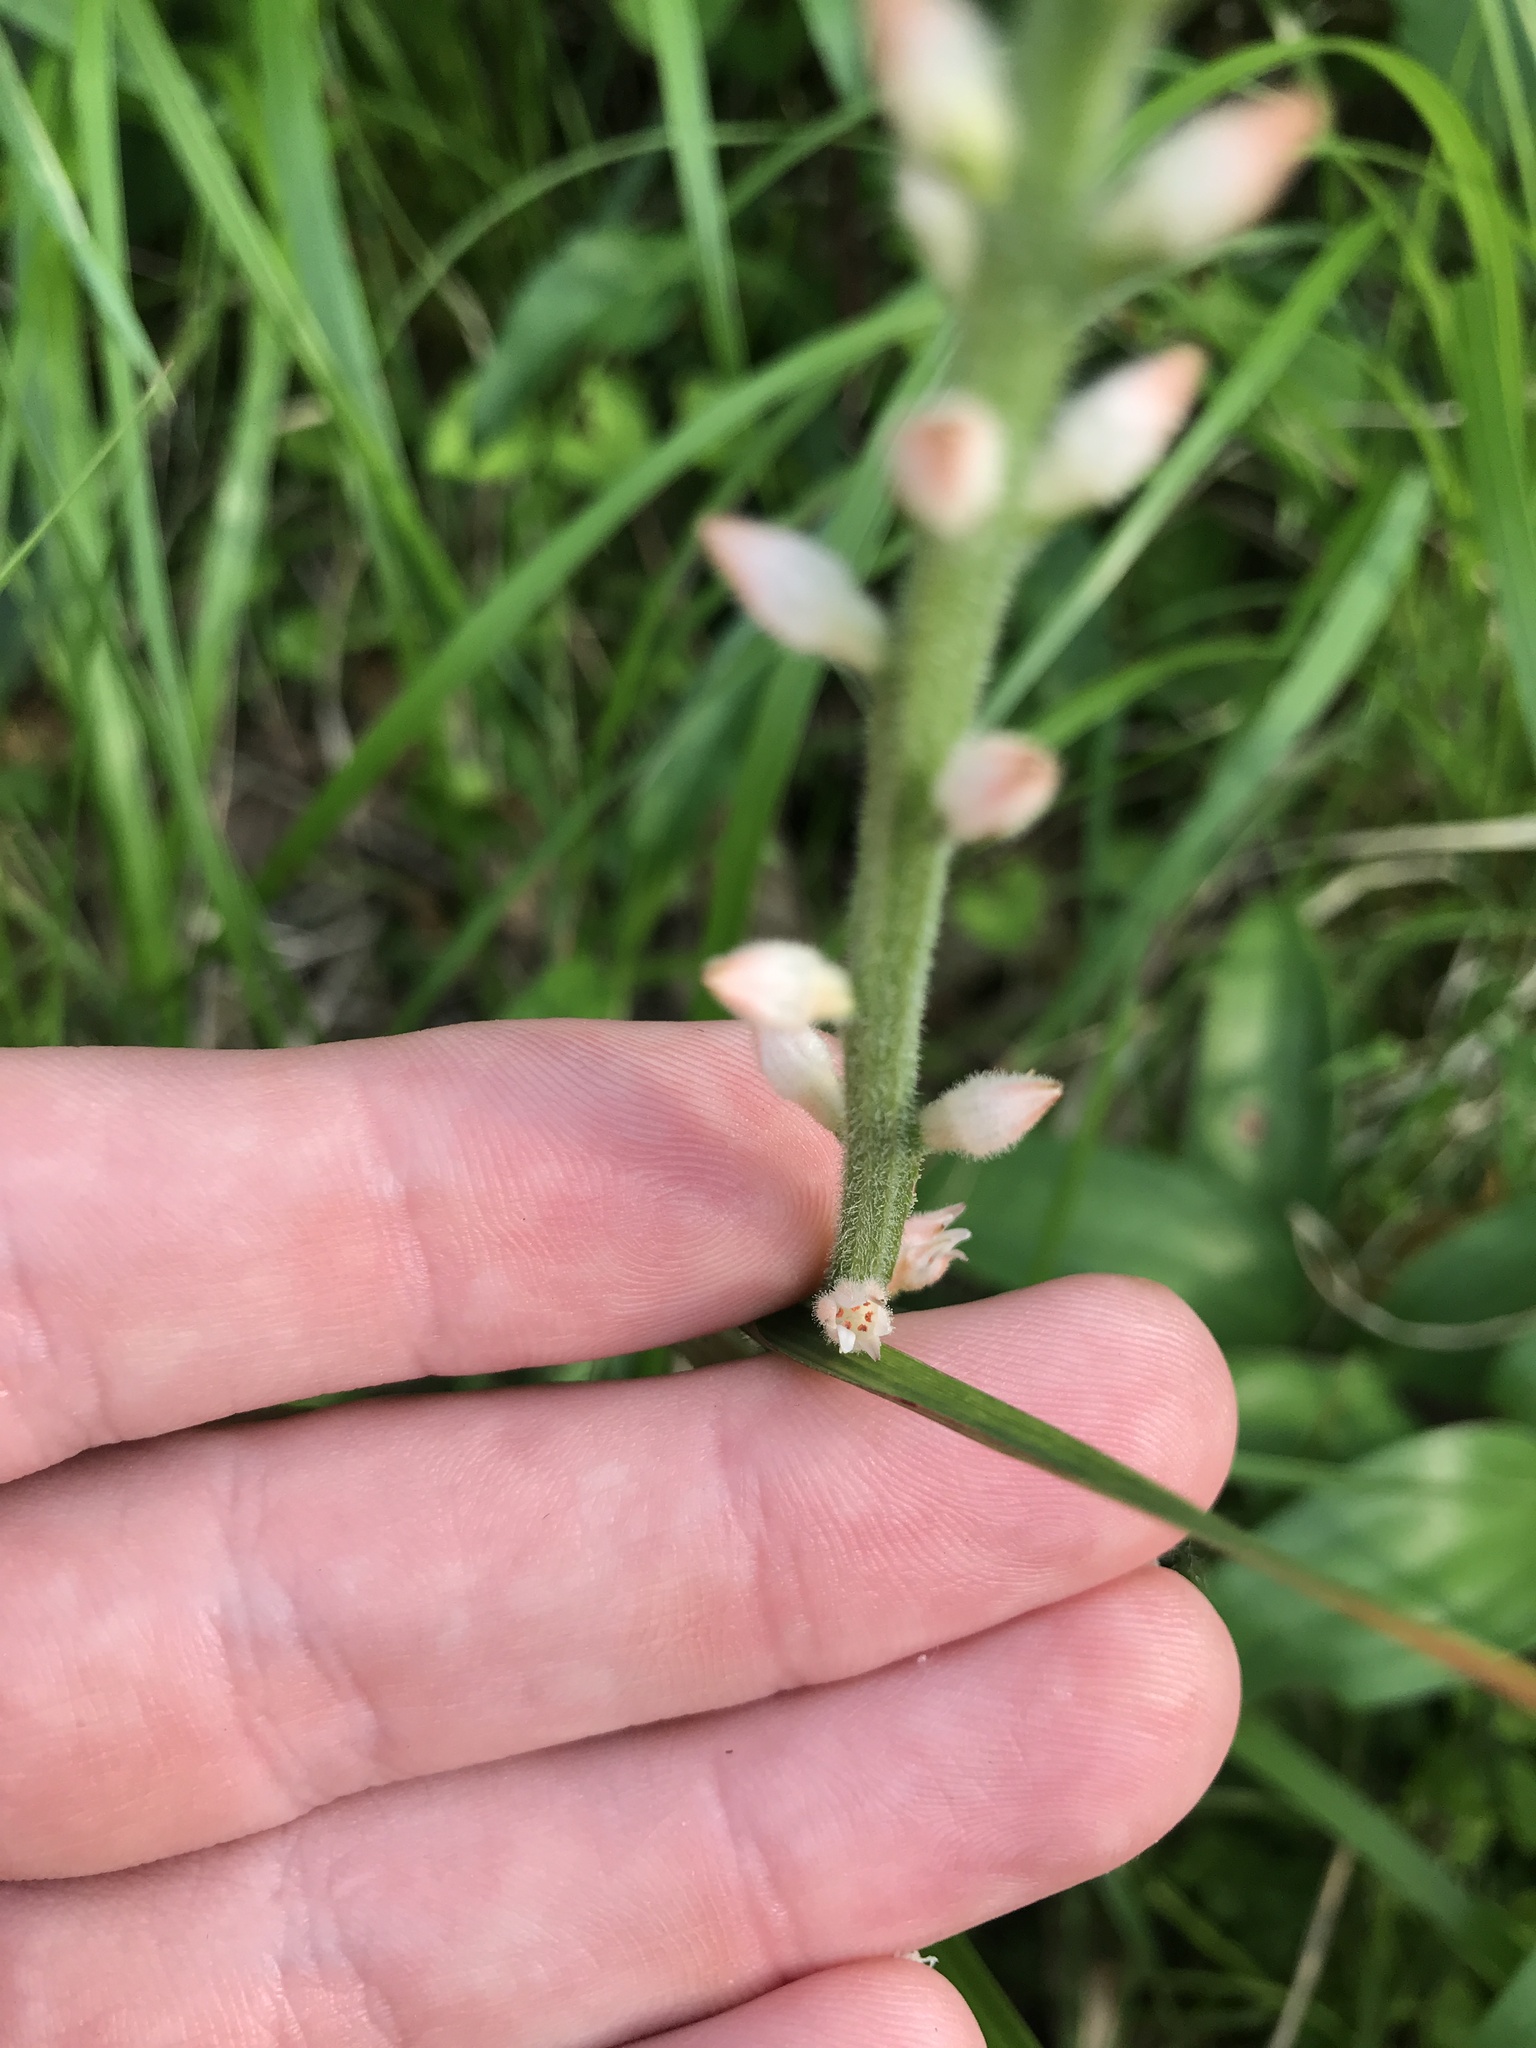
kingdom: Plantae
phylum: Tracheophyta
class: Liliopsida
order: Dioscoreales
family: Nartheciaceae
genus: Aletris
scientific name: Aletris spicata
